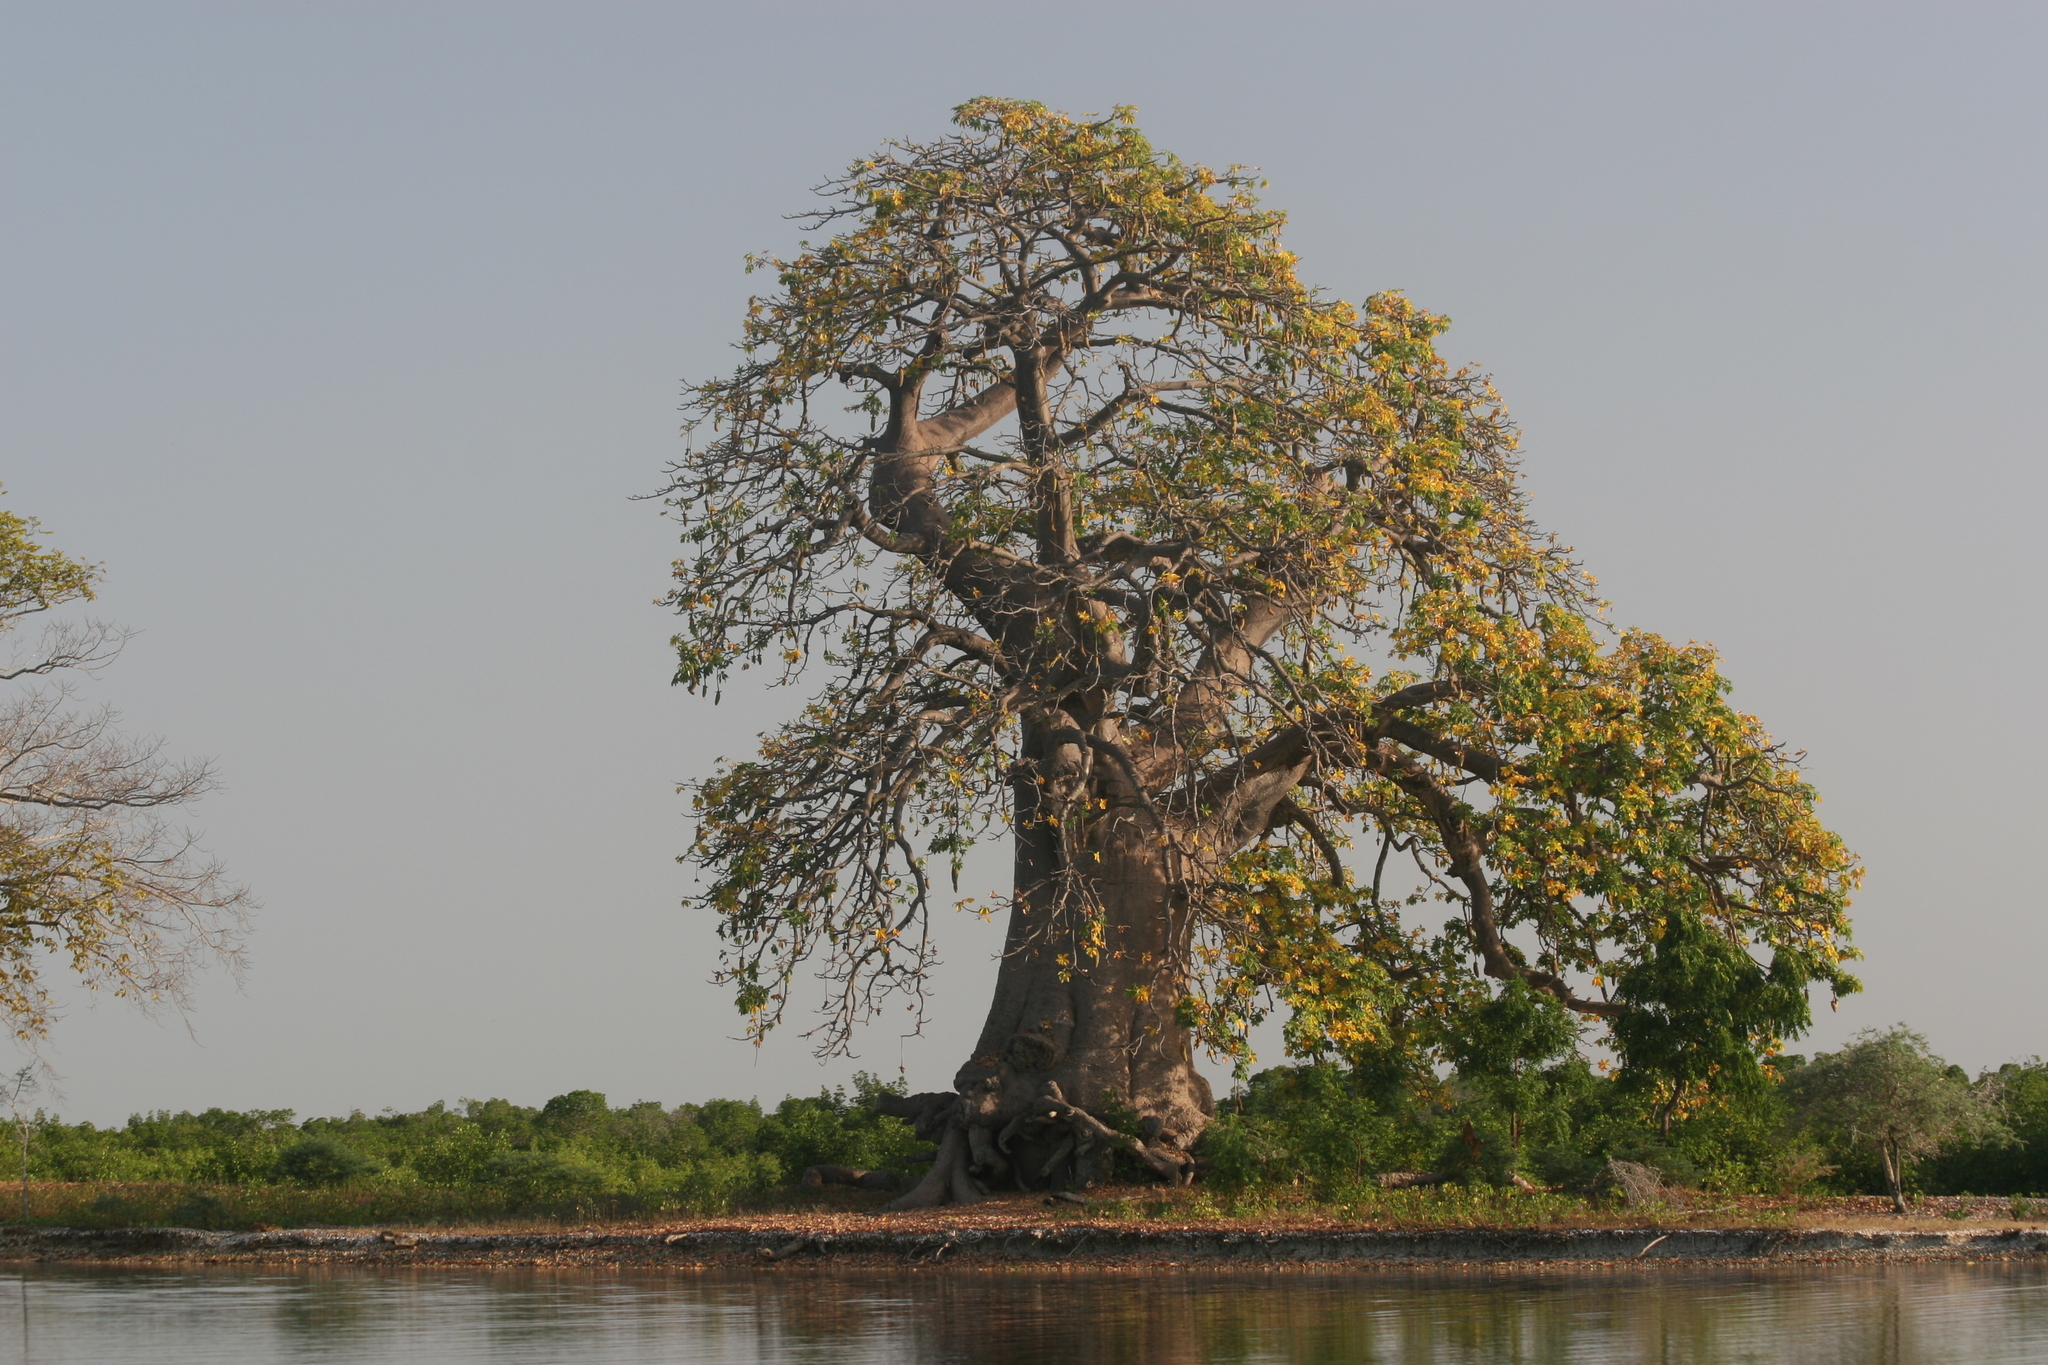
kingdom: Plantae
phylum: Tracheophyta
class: Magnoliopsida
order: Malvales
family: Malvaceae
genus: Adansonia
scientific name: Adansonia digitata
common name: Dead-rat-tree
